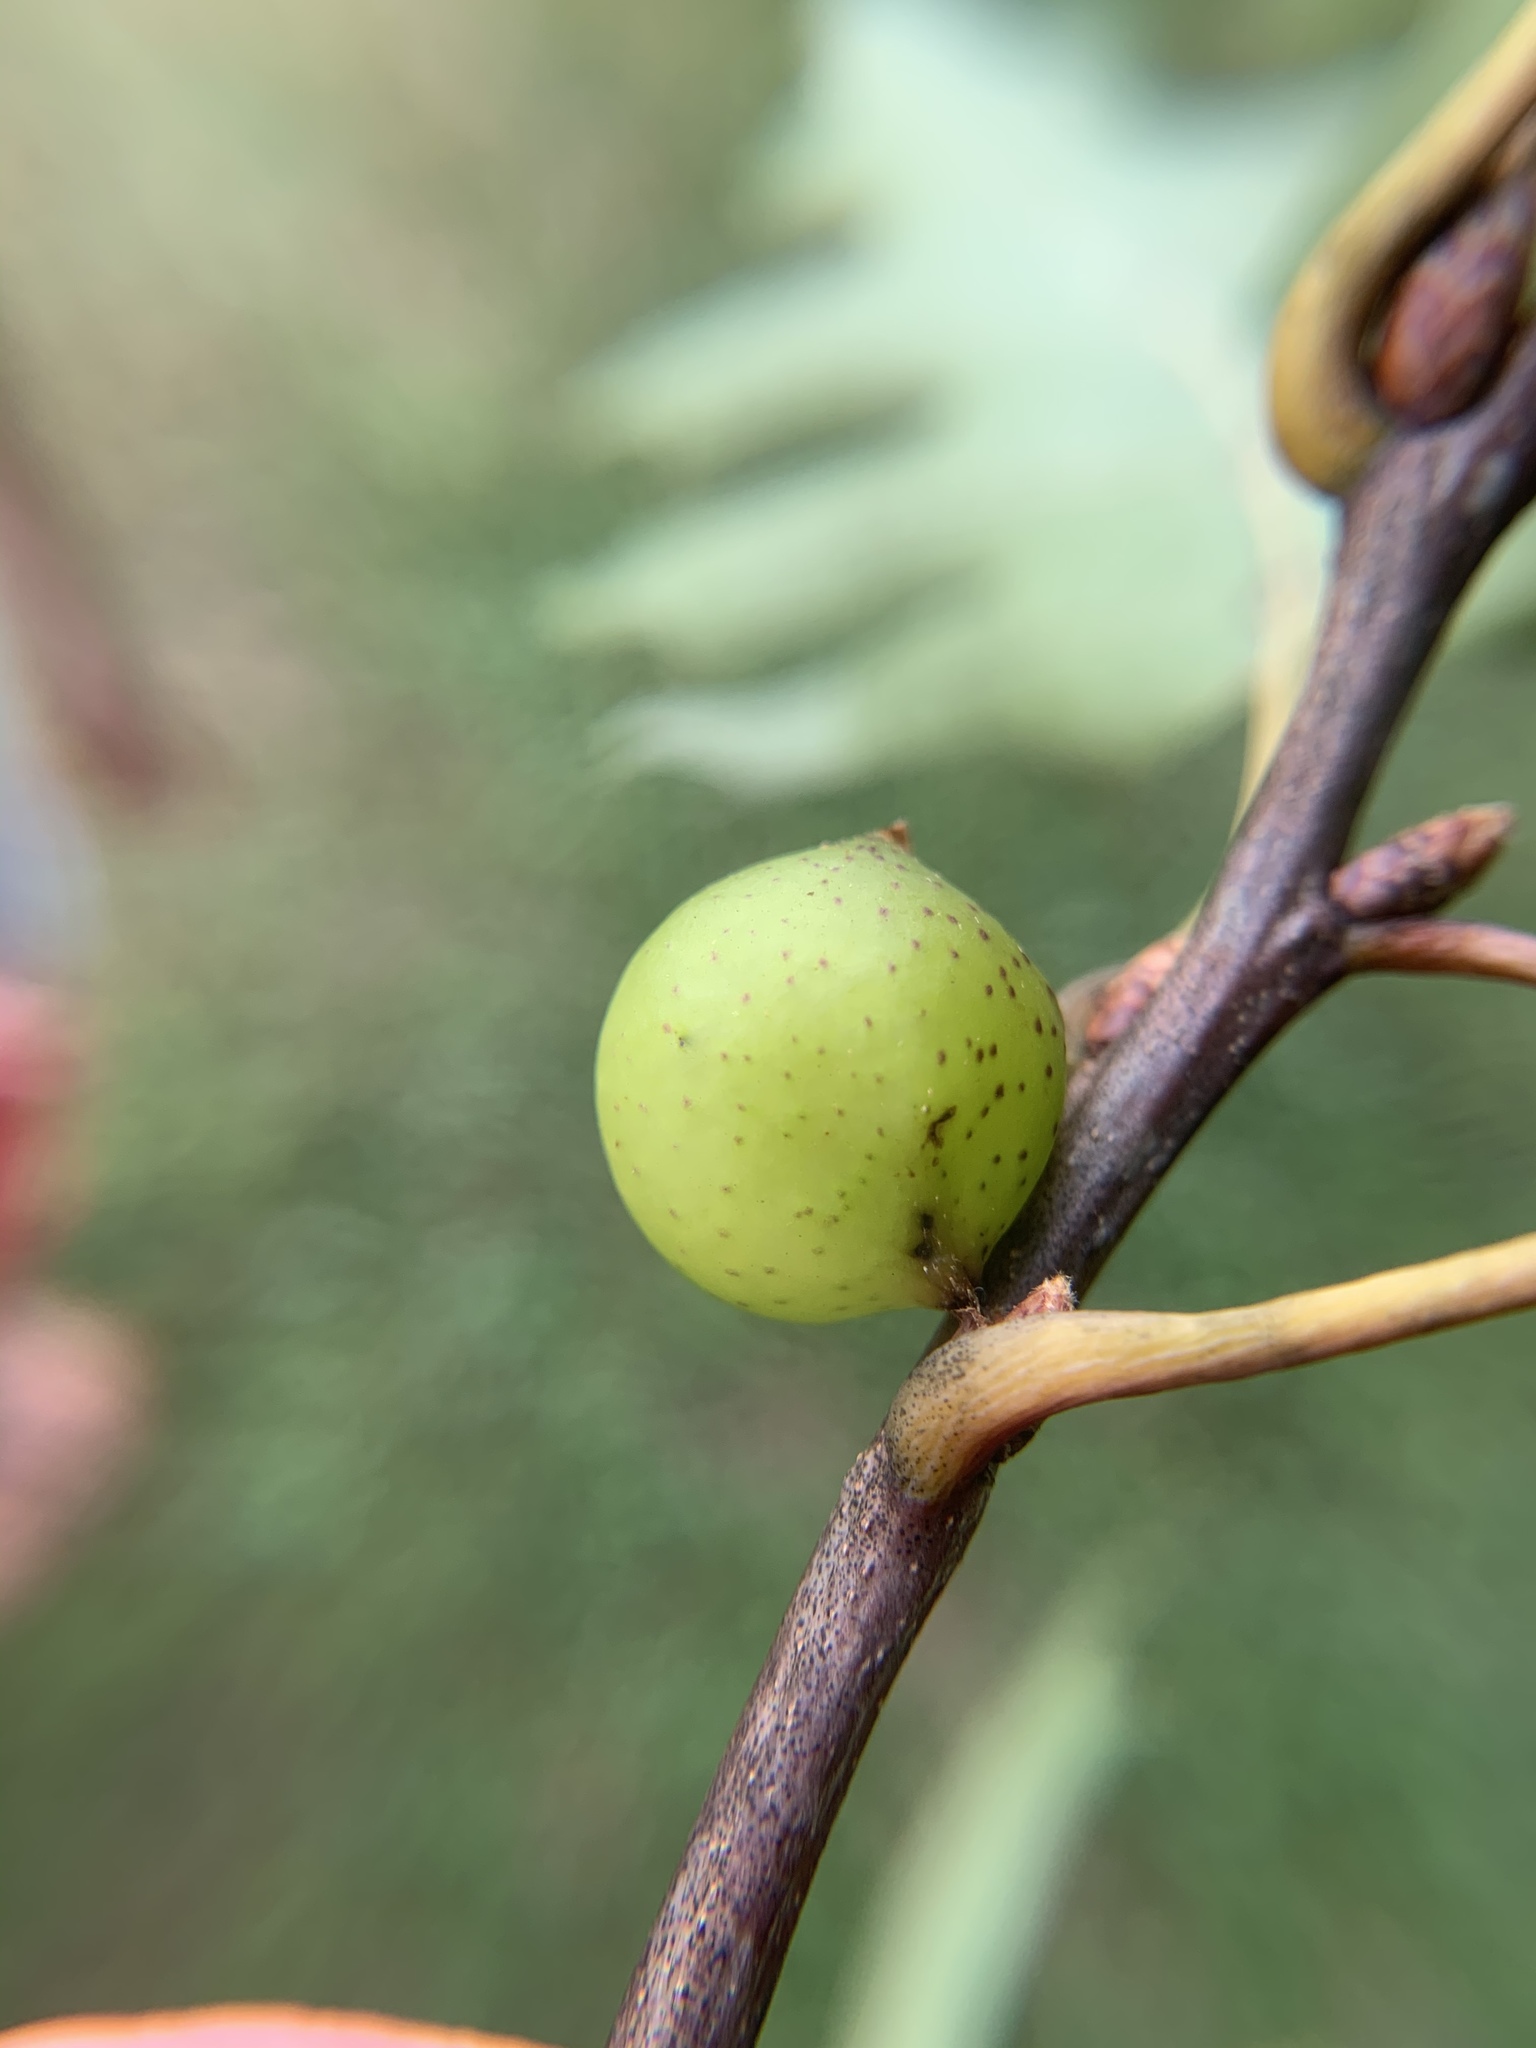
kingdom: Animalia
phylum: Arthropoda
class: Insecta
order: Hymenoptera
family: Cynipidae
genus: Amphibolips
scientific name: Amphibolips
